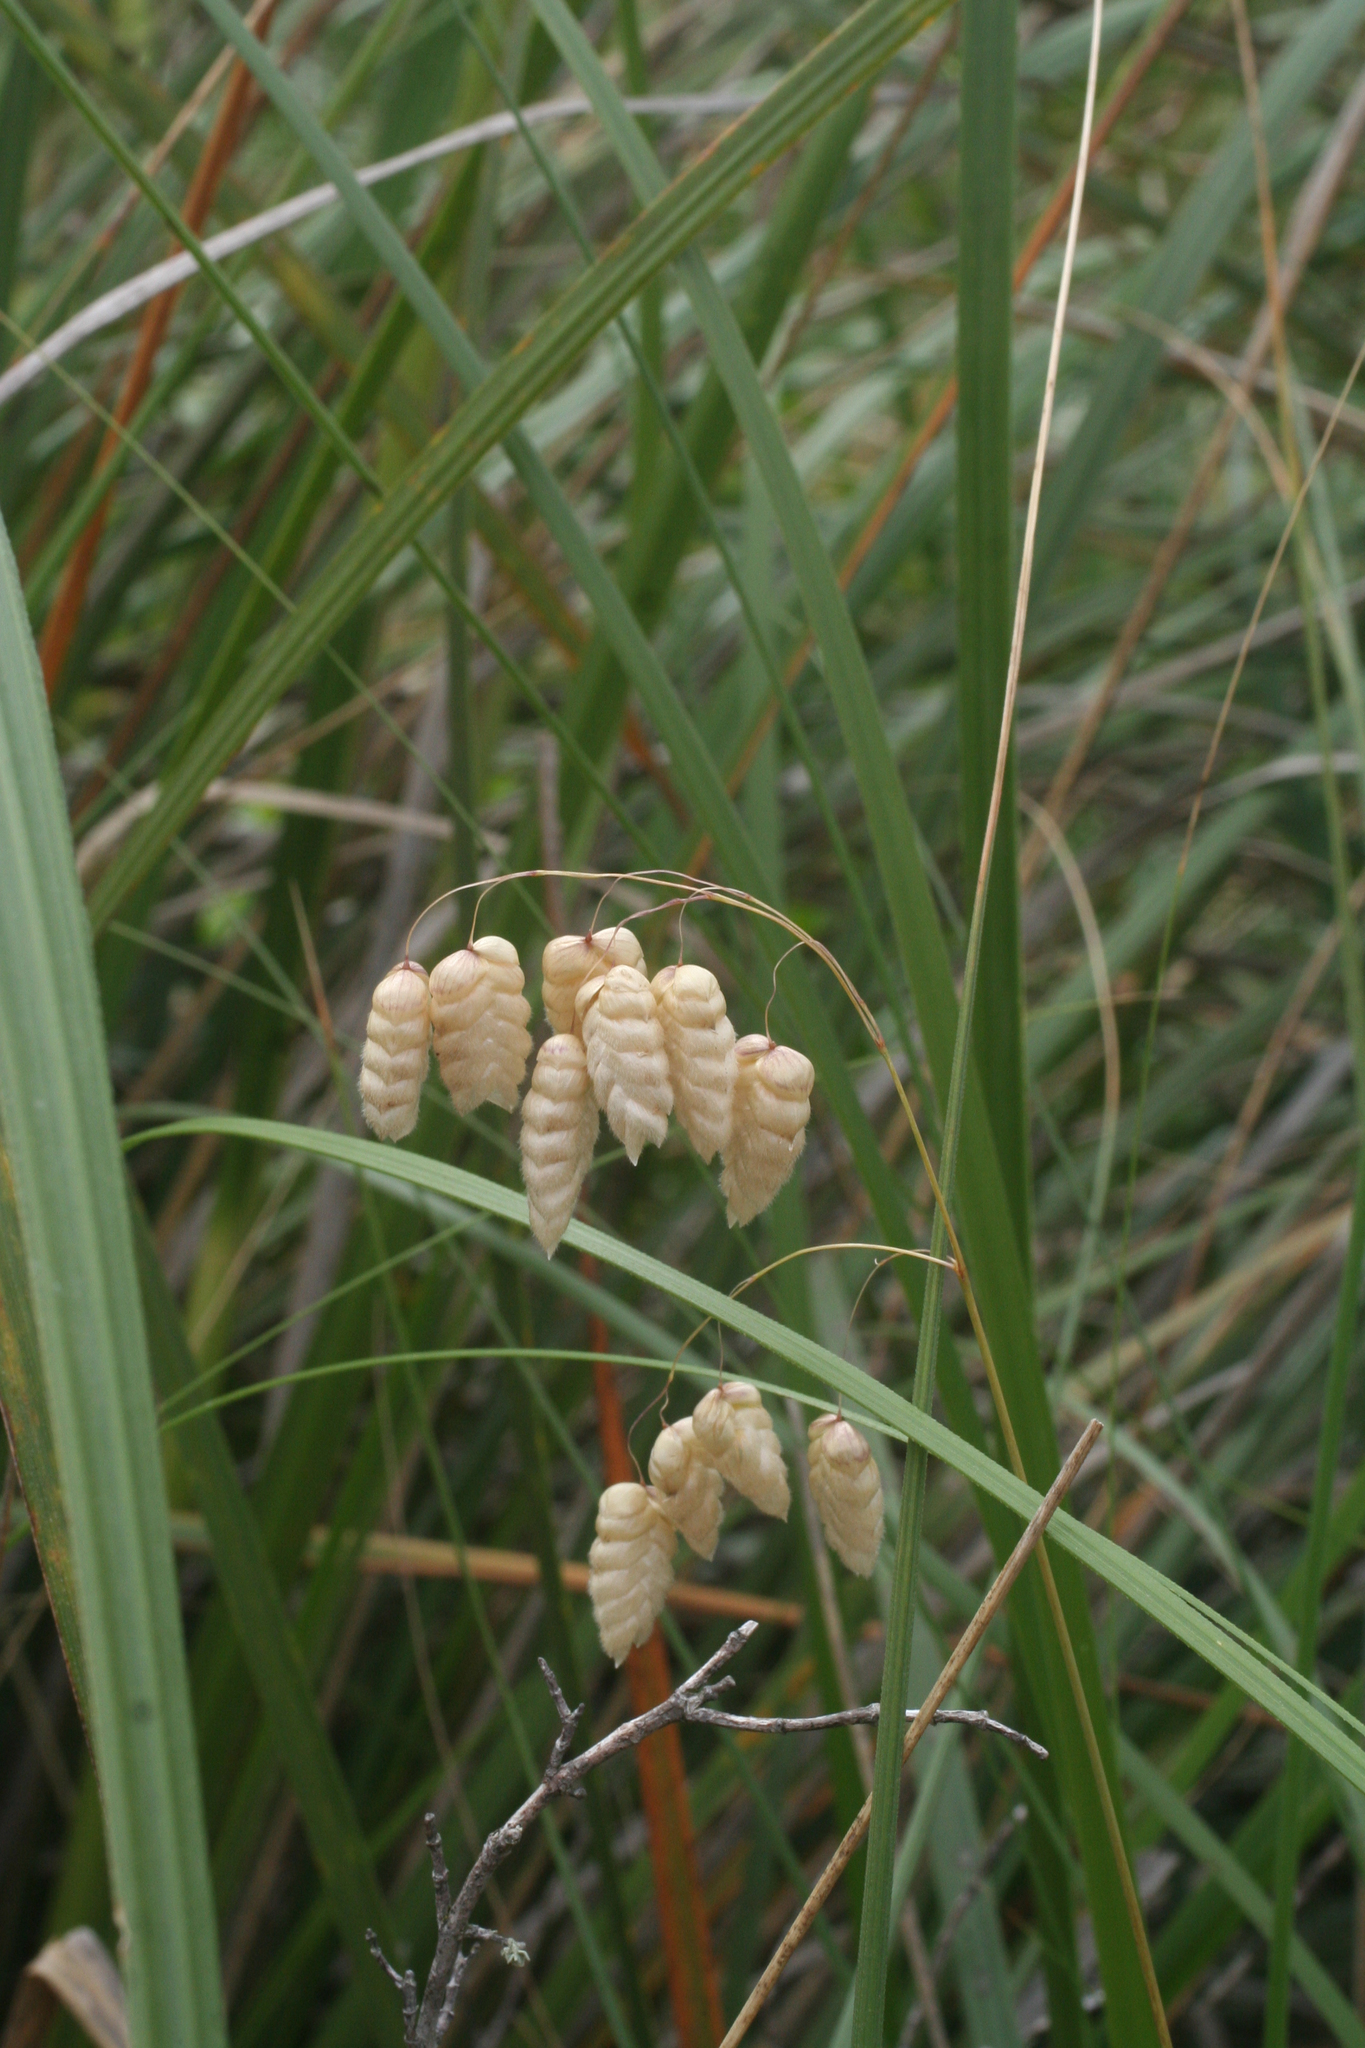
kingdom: Plantae
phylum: Tracheophyta
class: Liliopsida
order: Poales
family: Poaceae
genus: Briza
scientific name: Briza maxima
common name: Big quakinggrass
